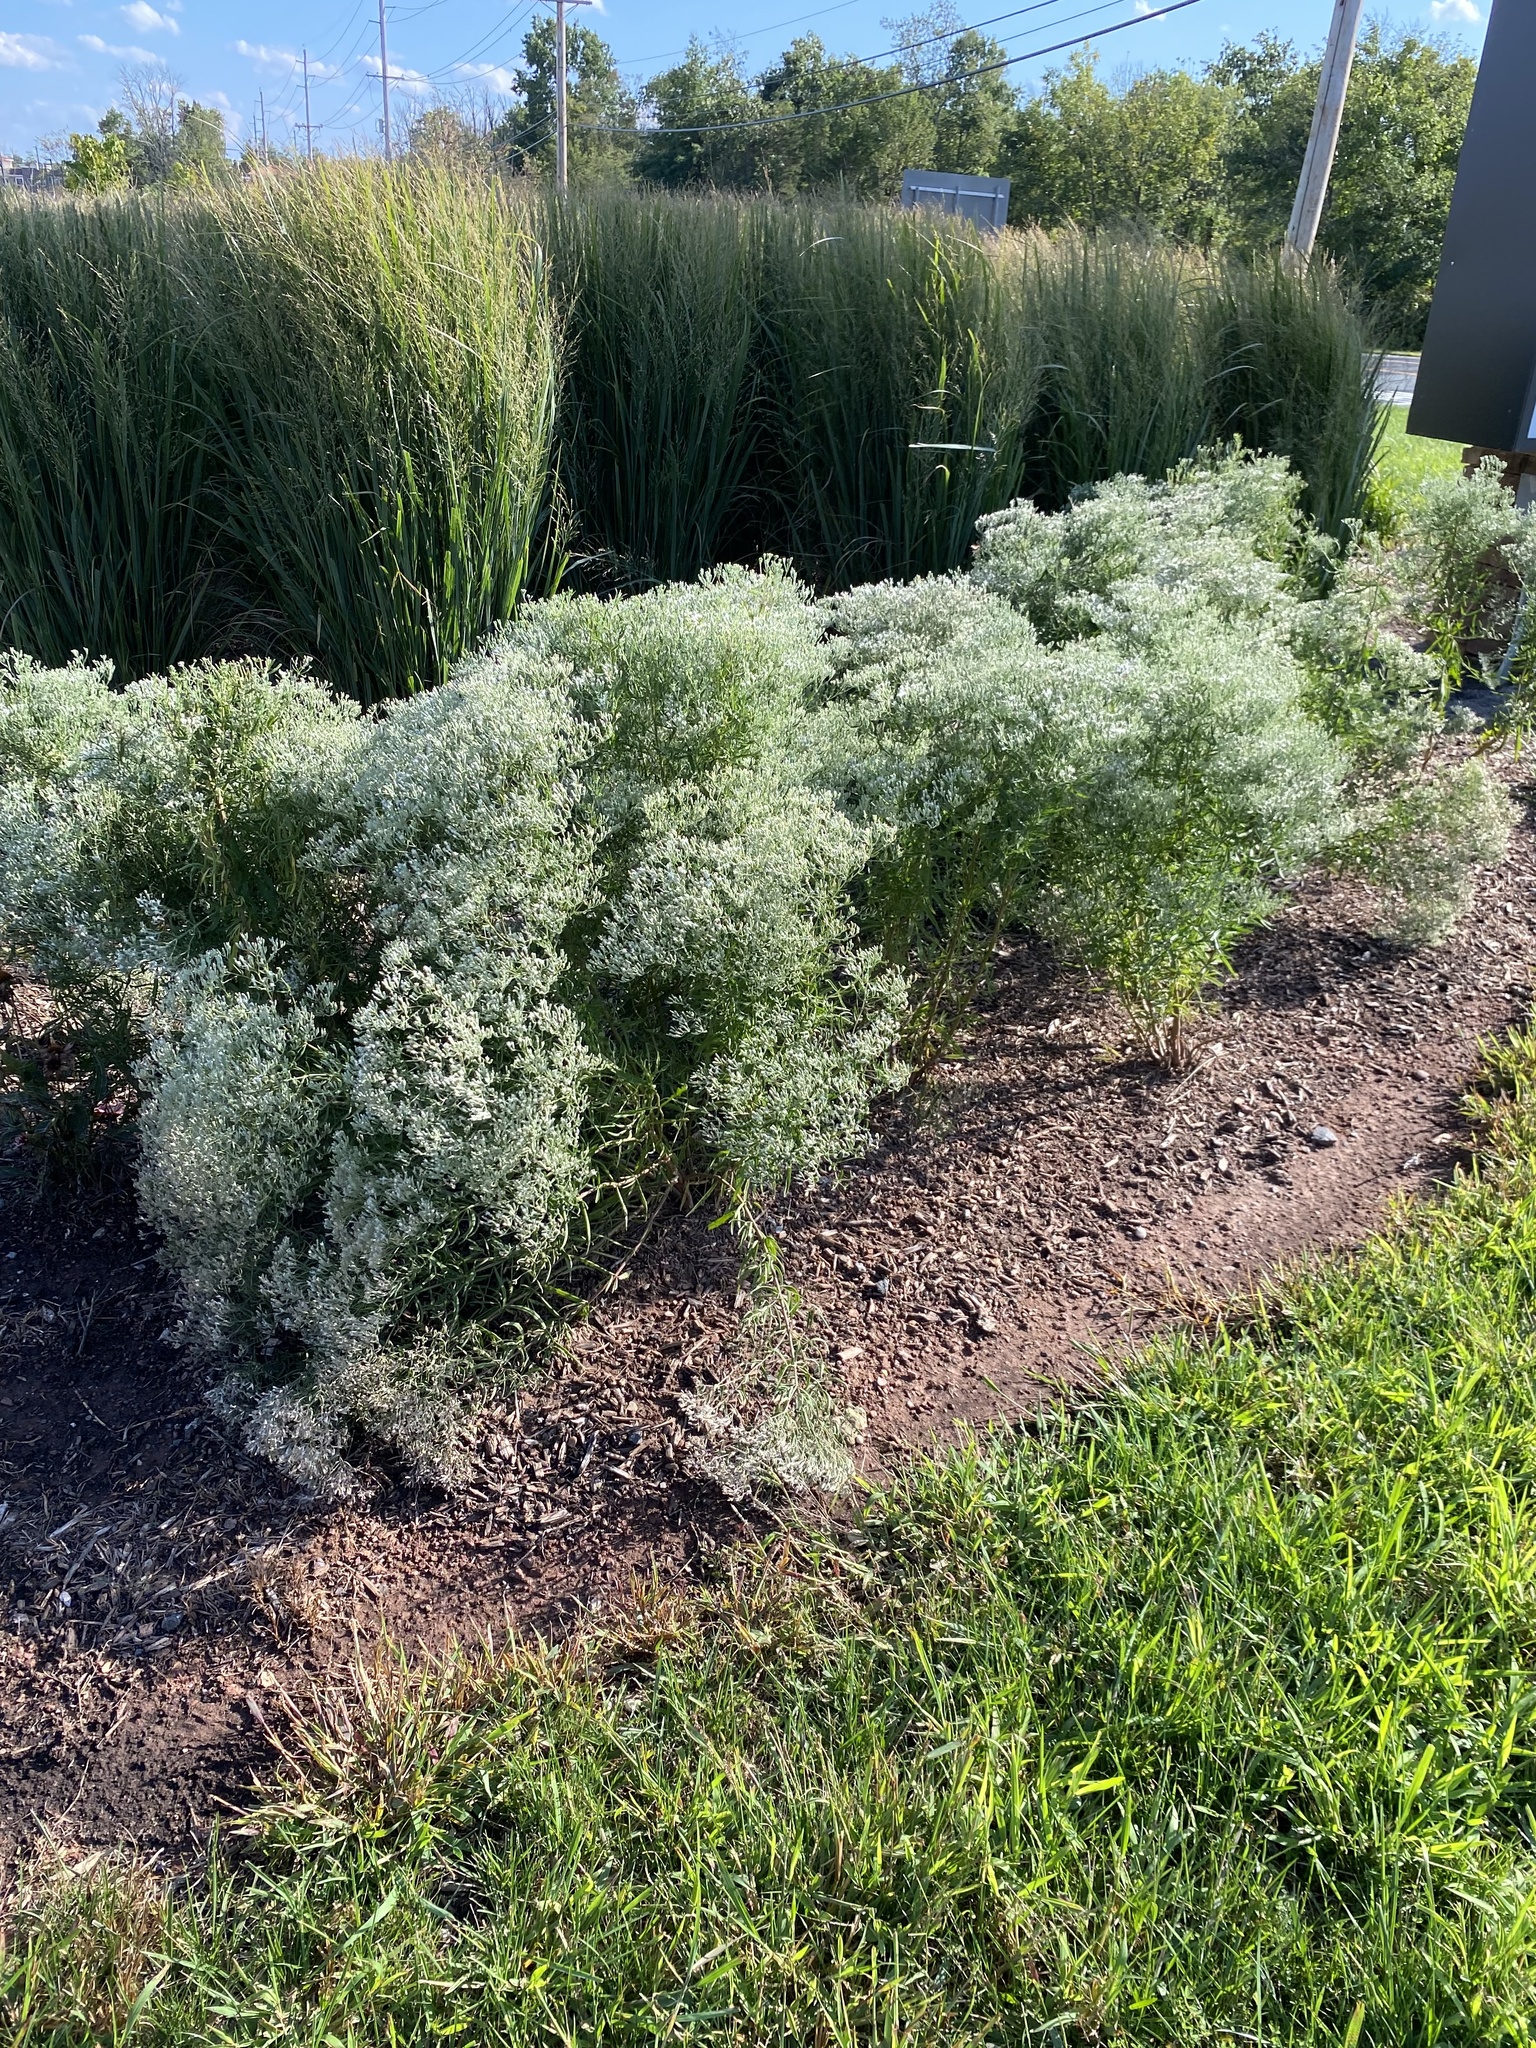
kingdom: Plantae
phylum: Tracheophyta
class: Magnoliopsida
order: Asterales
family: Asteraceae
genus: Eupatorium
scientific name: Eupatorium torreyanum
